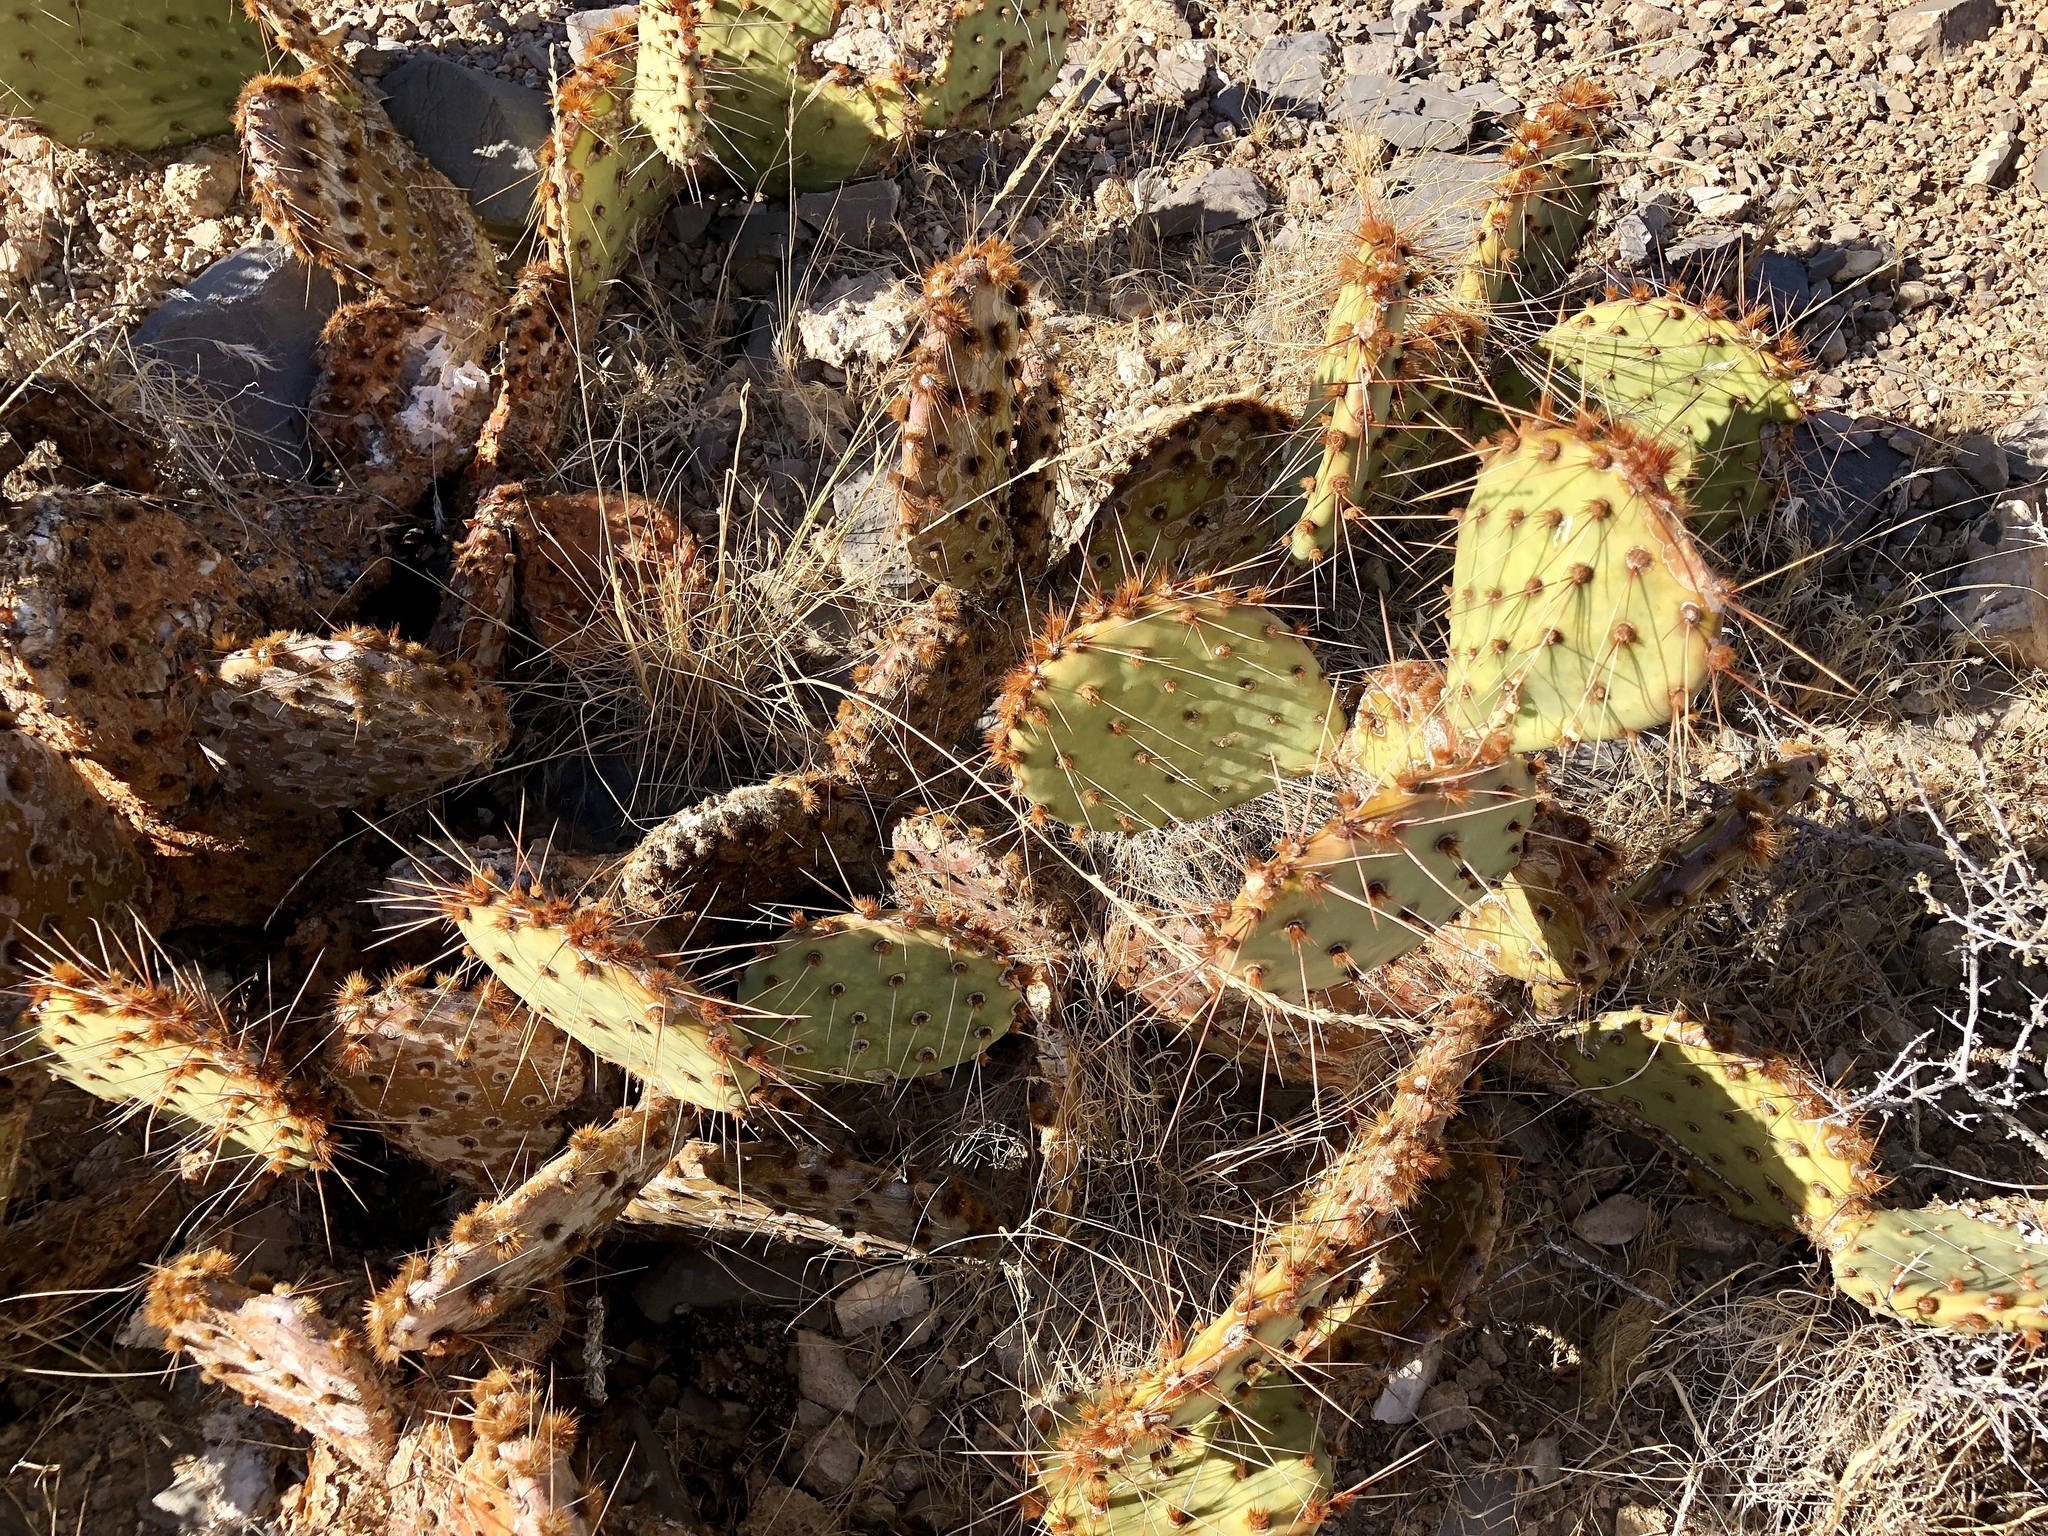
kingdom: Plantae
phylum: Tracheophyta
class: Magnoliopsida
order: Caryophyllales
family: Cactaceae
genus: Opuntia
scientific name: Opuntia phaeacantha
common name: New mexico prickly-pear
